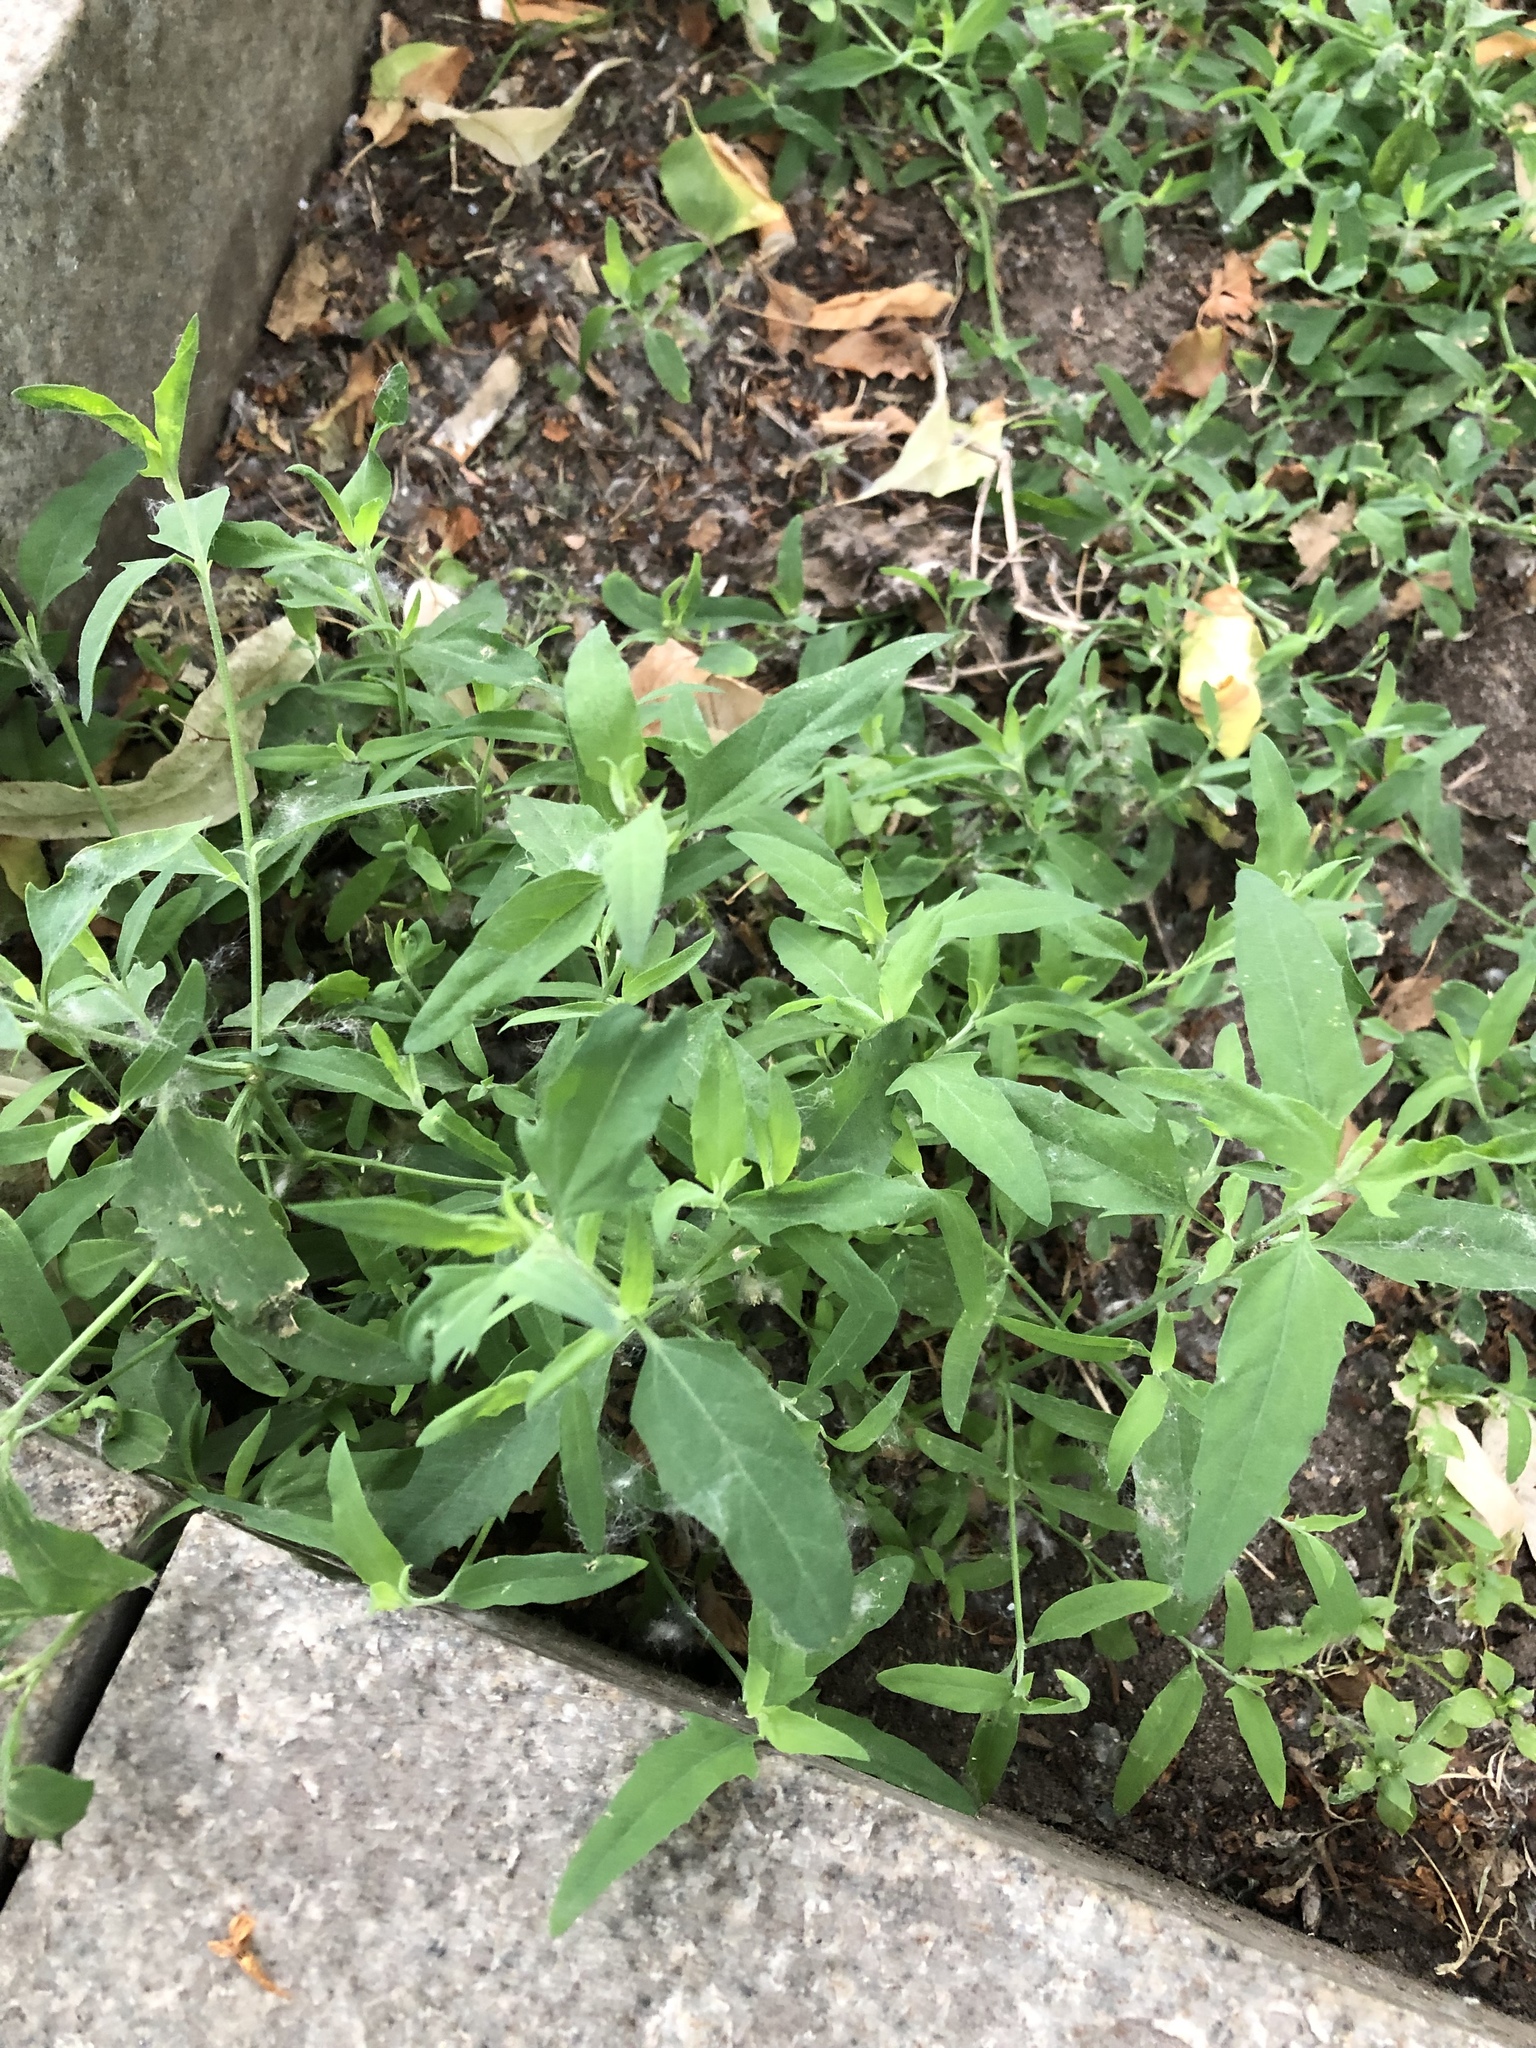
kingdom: Plantae
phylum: Tracheophyta
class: Magnoliopsida
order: Caryophyllales
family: Amaranthaceae
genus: Atriplex
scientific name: Atriplex patula
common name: Common orache
